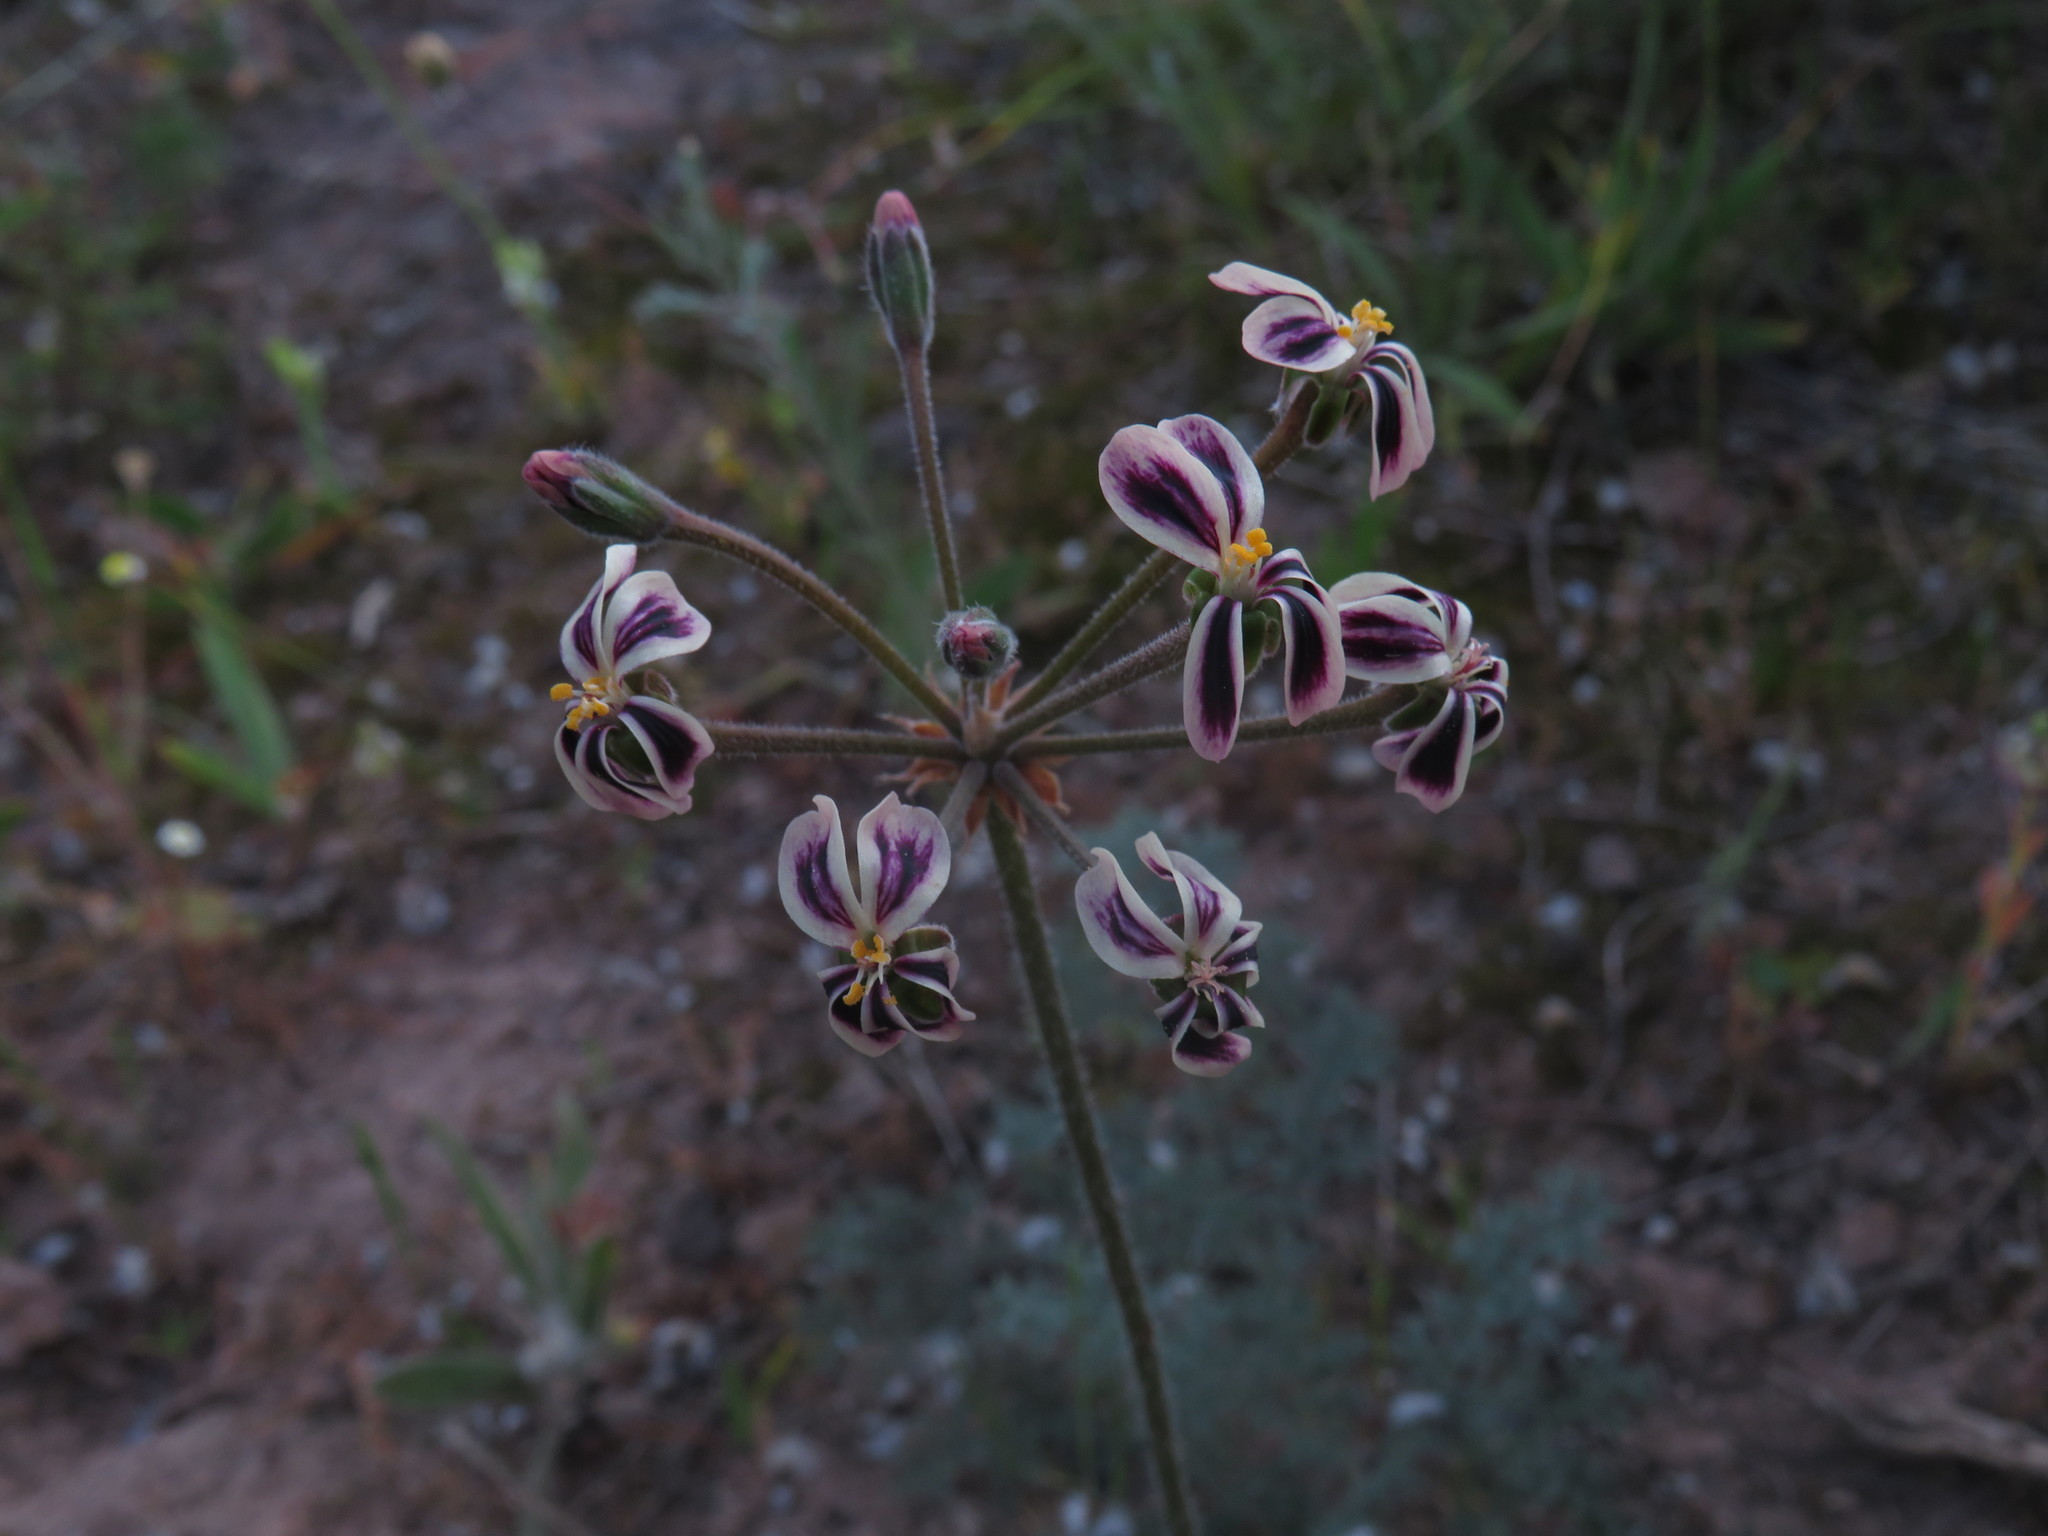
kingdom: Plantae
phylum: Tracheophyta
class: Magnoliopsida
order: Geraniales
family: Geraniaceae
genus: Pelargonium
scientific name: Pelargonium triste
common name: Night-scent pelargonium
